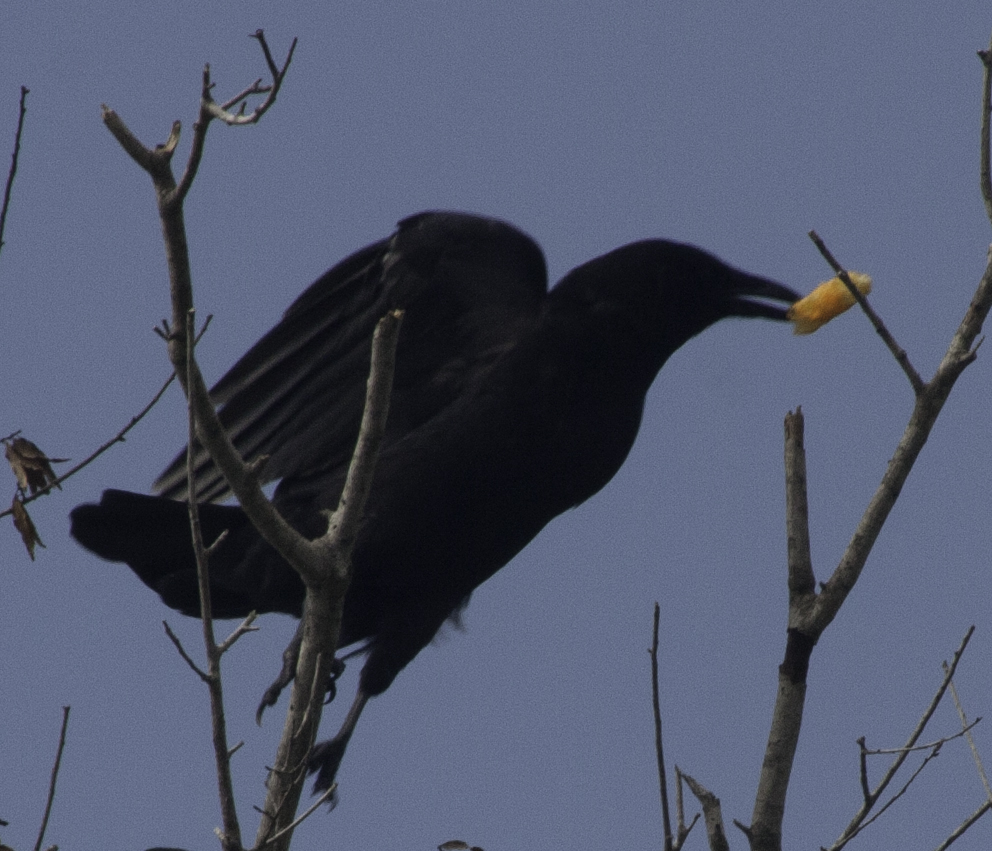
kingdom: Animalia
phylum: Chordata
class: Aves
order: Passeriformes
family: Corvidae
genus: Corvus
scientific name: Corvus
